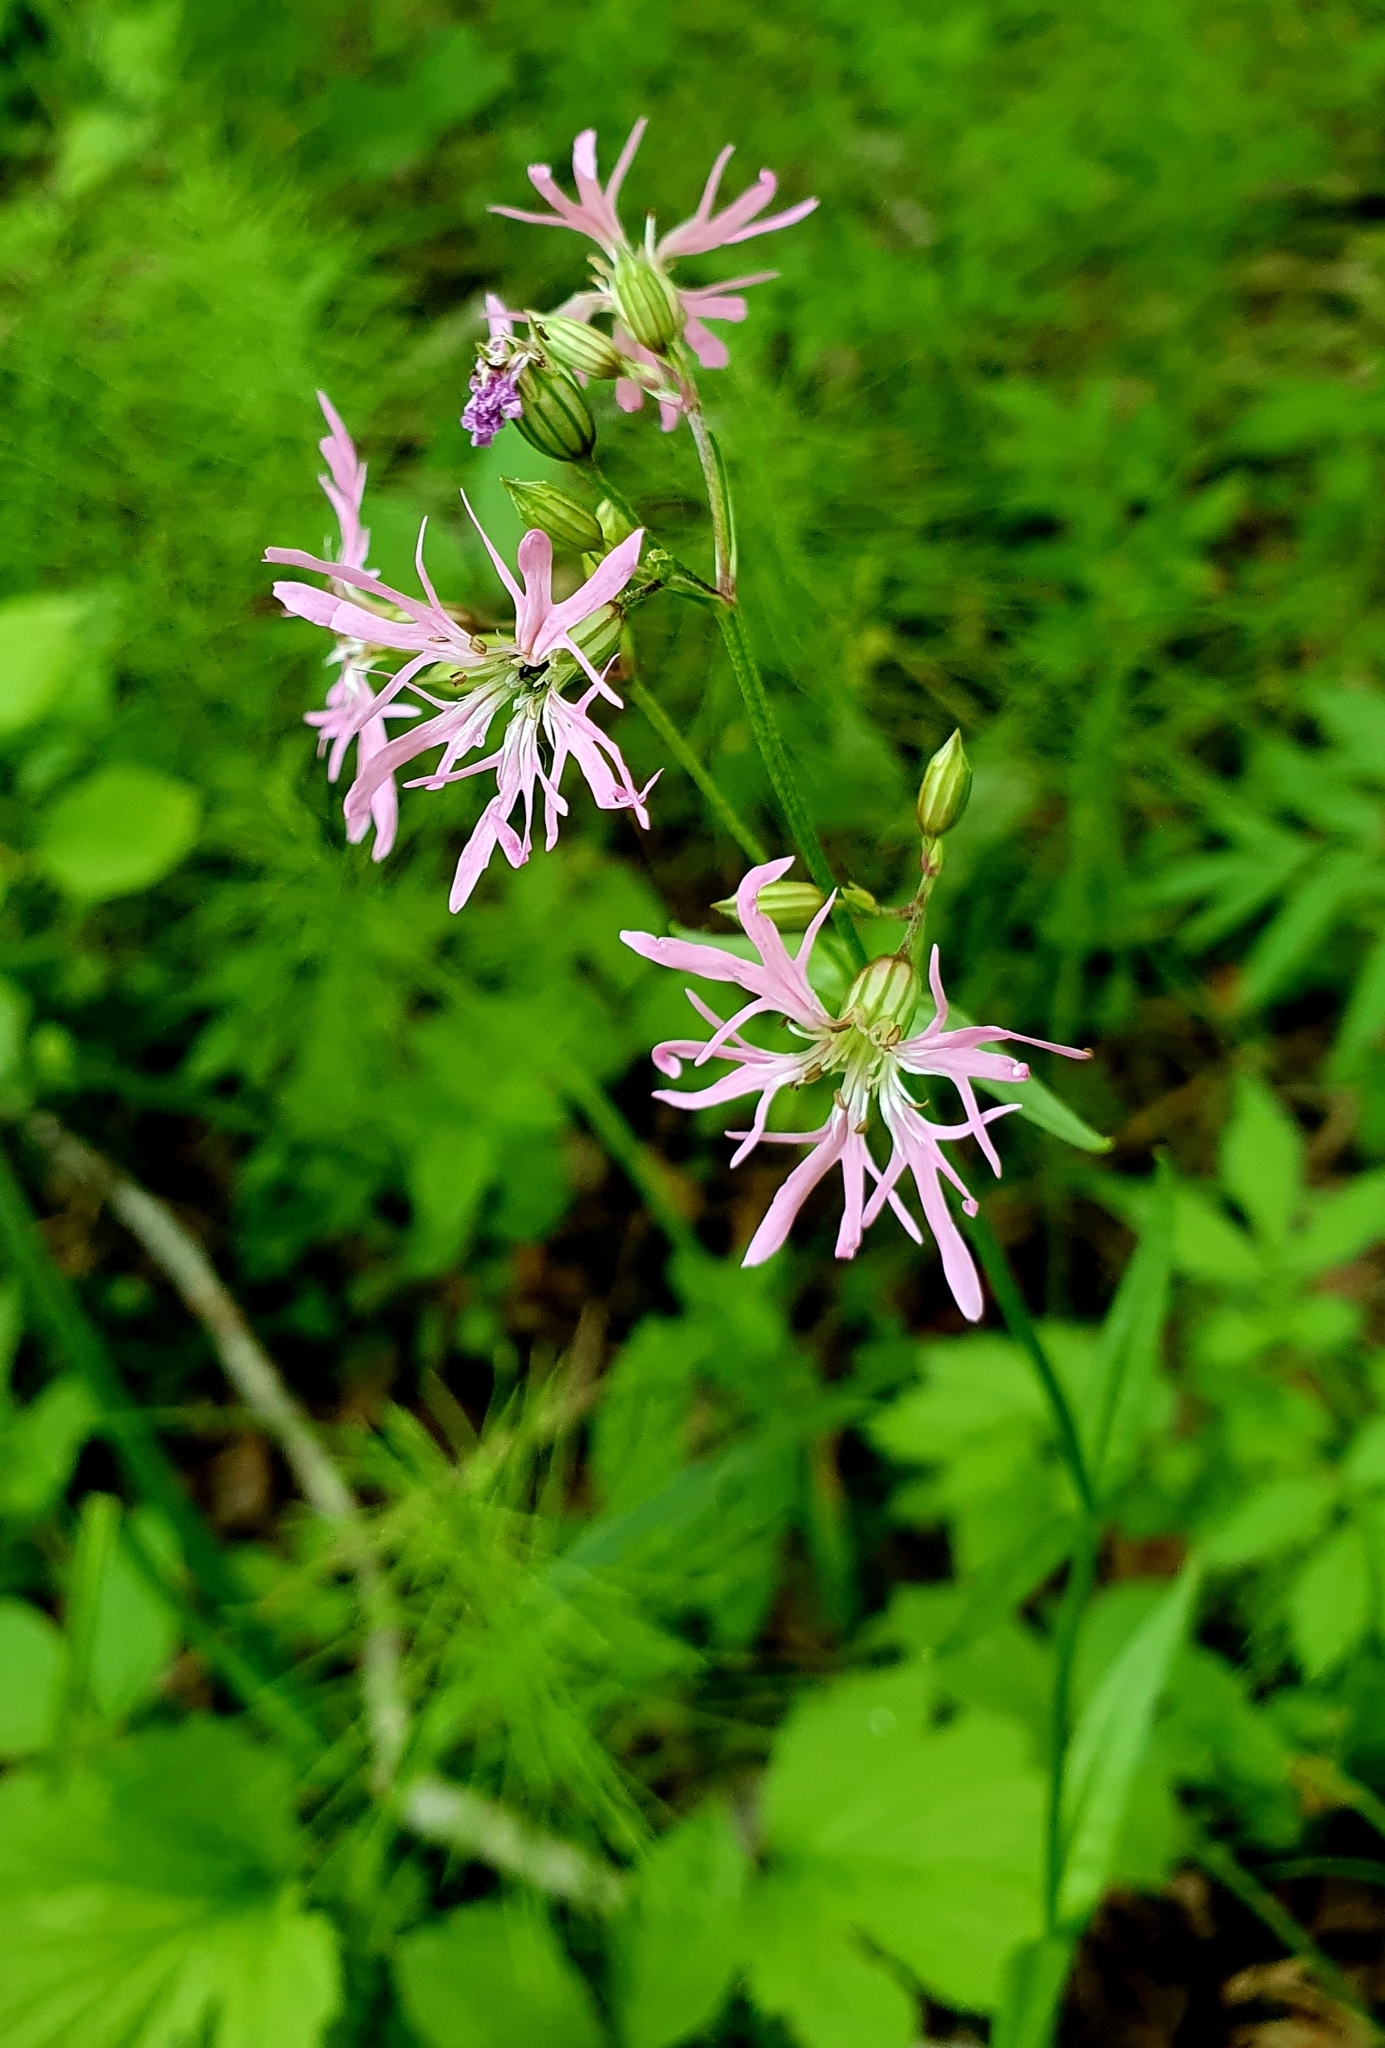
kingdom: Plantae
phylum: Tracheophyta
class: Magnoliopsida
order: Caryophyllales
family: Caryophyllaceae
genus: Silene
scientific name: Silene flos-cuculi
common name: Ragged-robin
